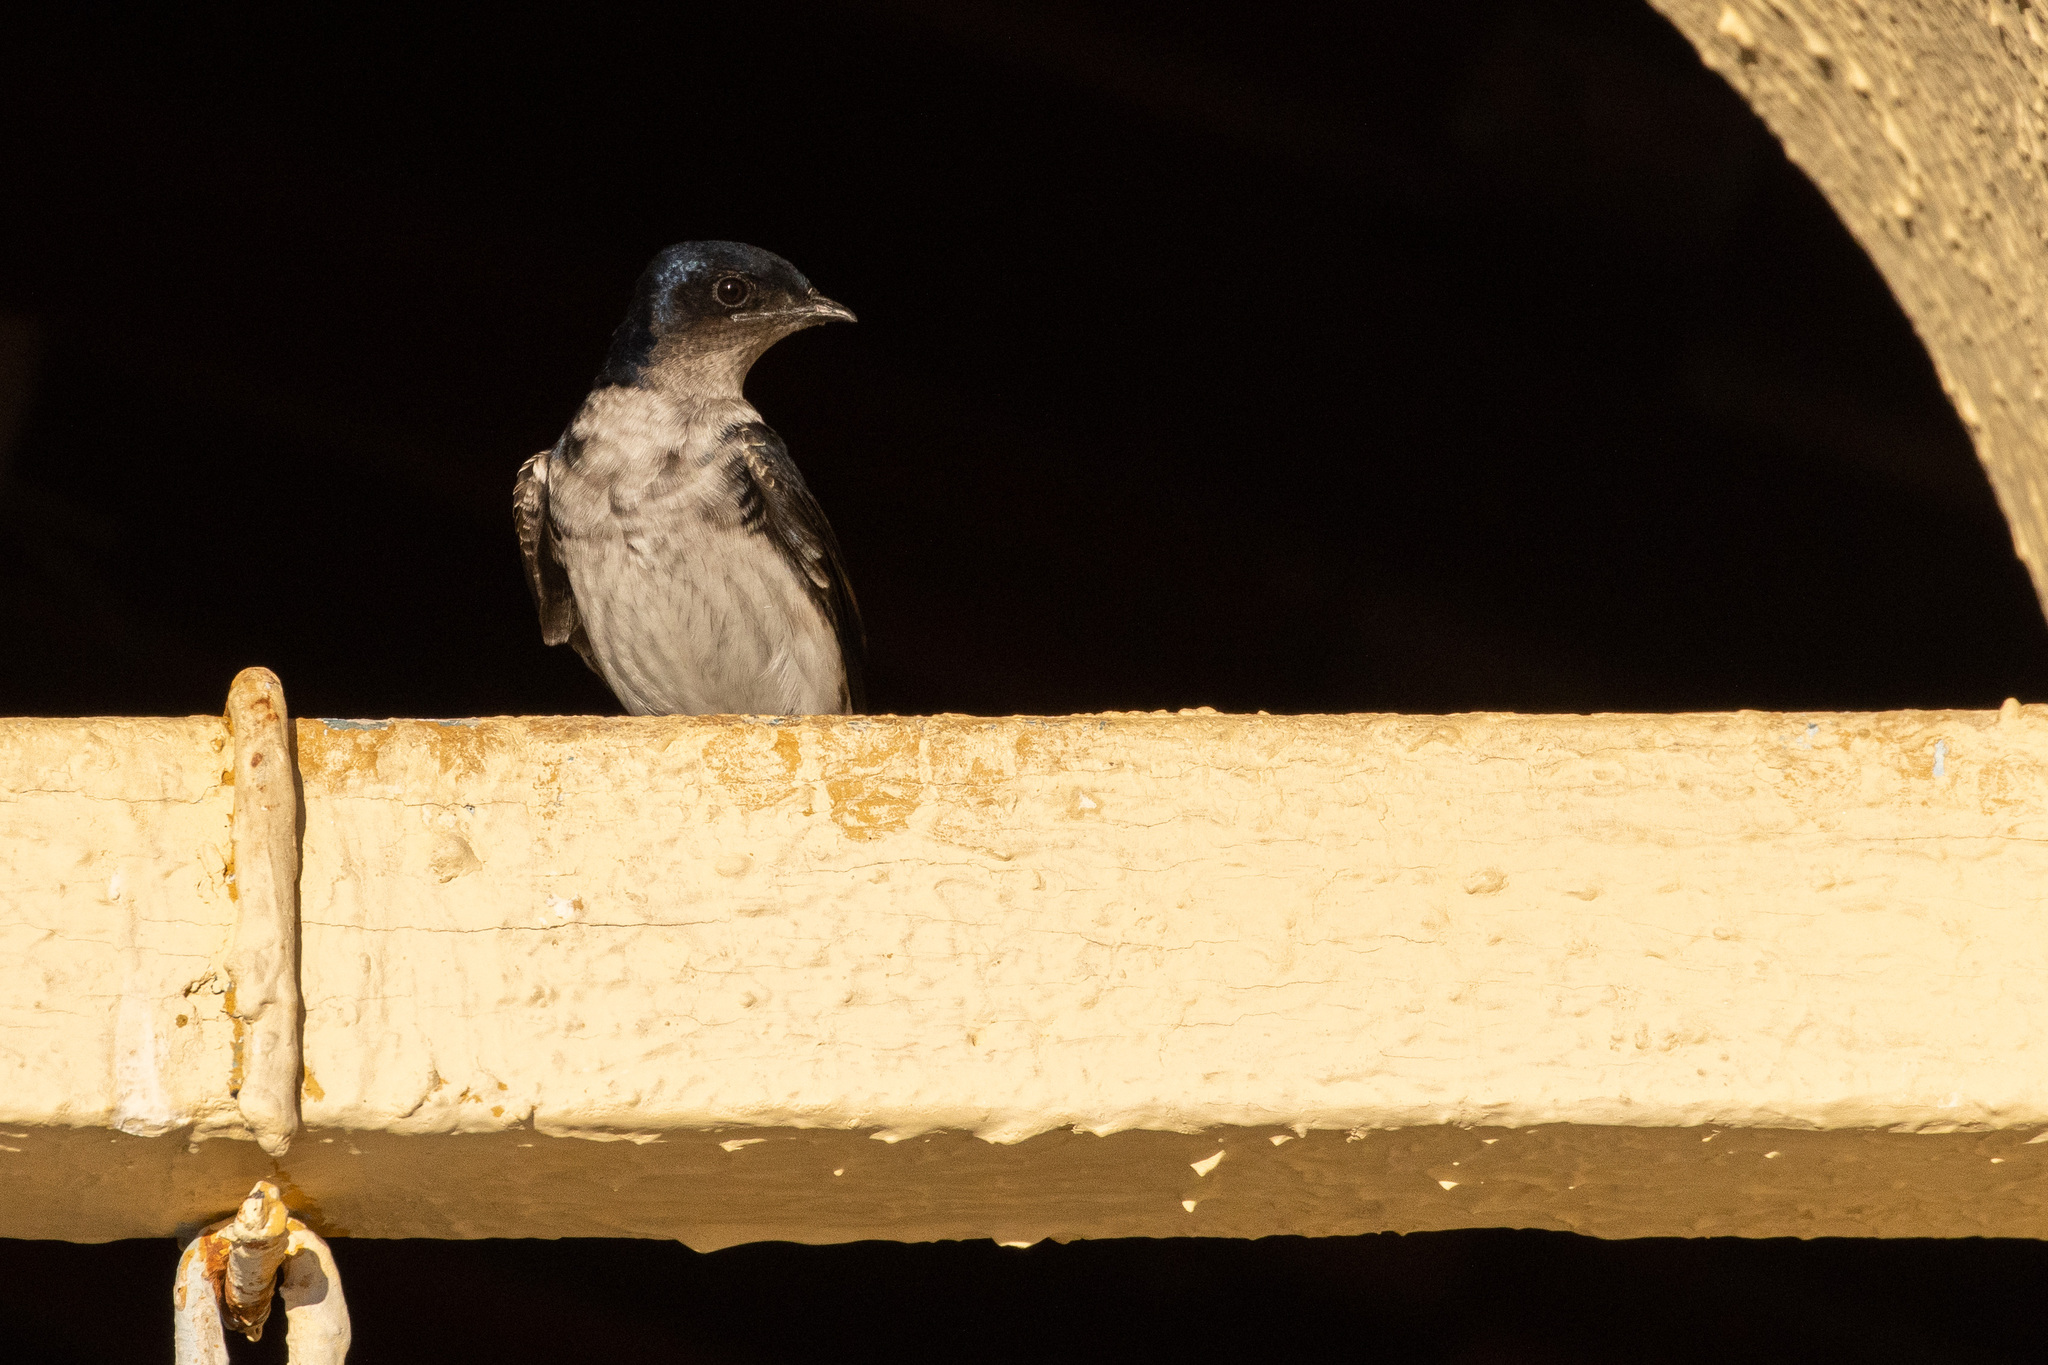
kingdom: Animalia
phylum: Chordata
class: Aves
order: Passeriformes
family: Hirundinidae
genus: Progne
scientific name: Progne chalybea
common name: Grey-breasted martin
